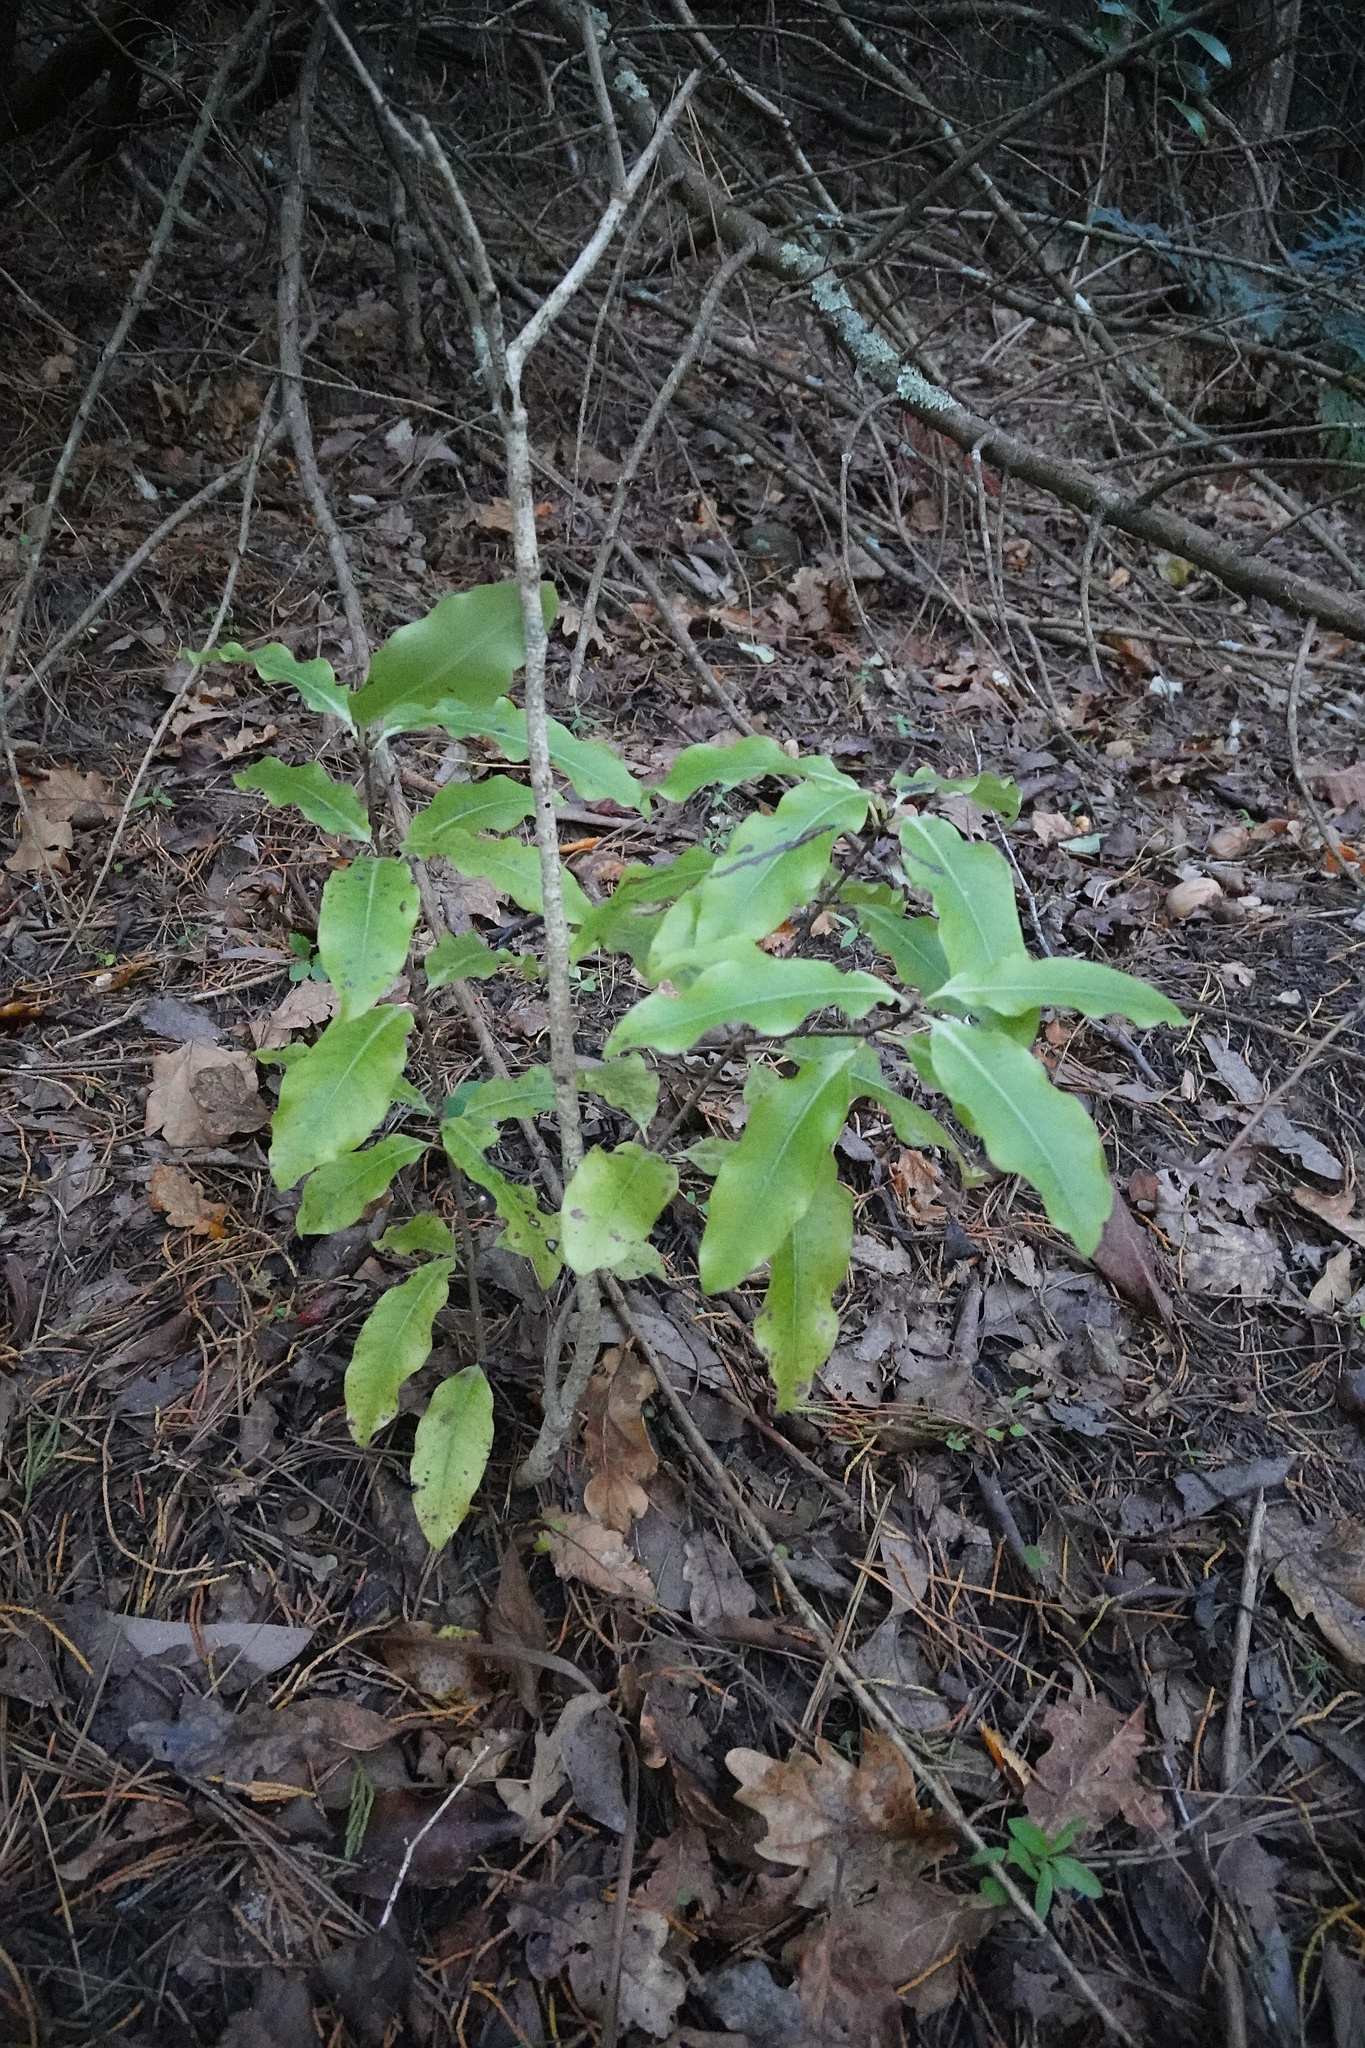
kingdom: Plantae
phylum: Tracheophyta
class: Magnoliopsida
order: Apiales
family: Pittosporaceae
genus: Pittosporum
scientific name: Pittosporum eugenioides
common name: Lemonwood
